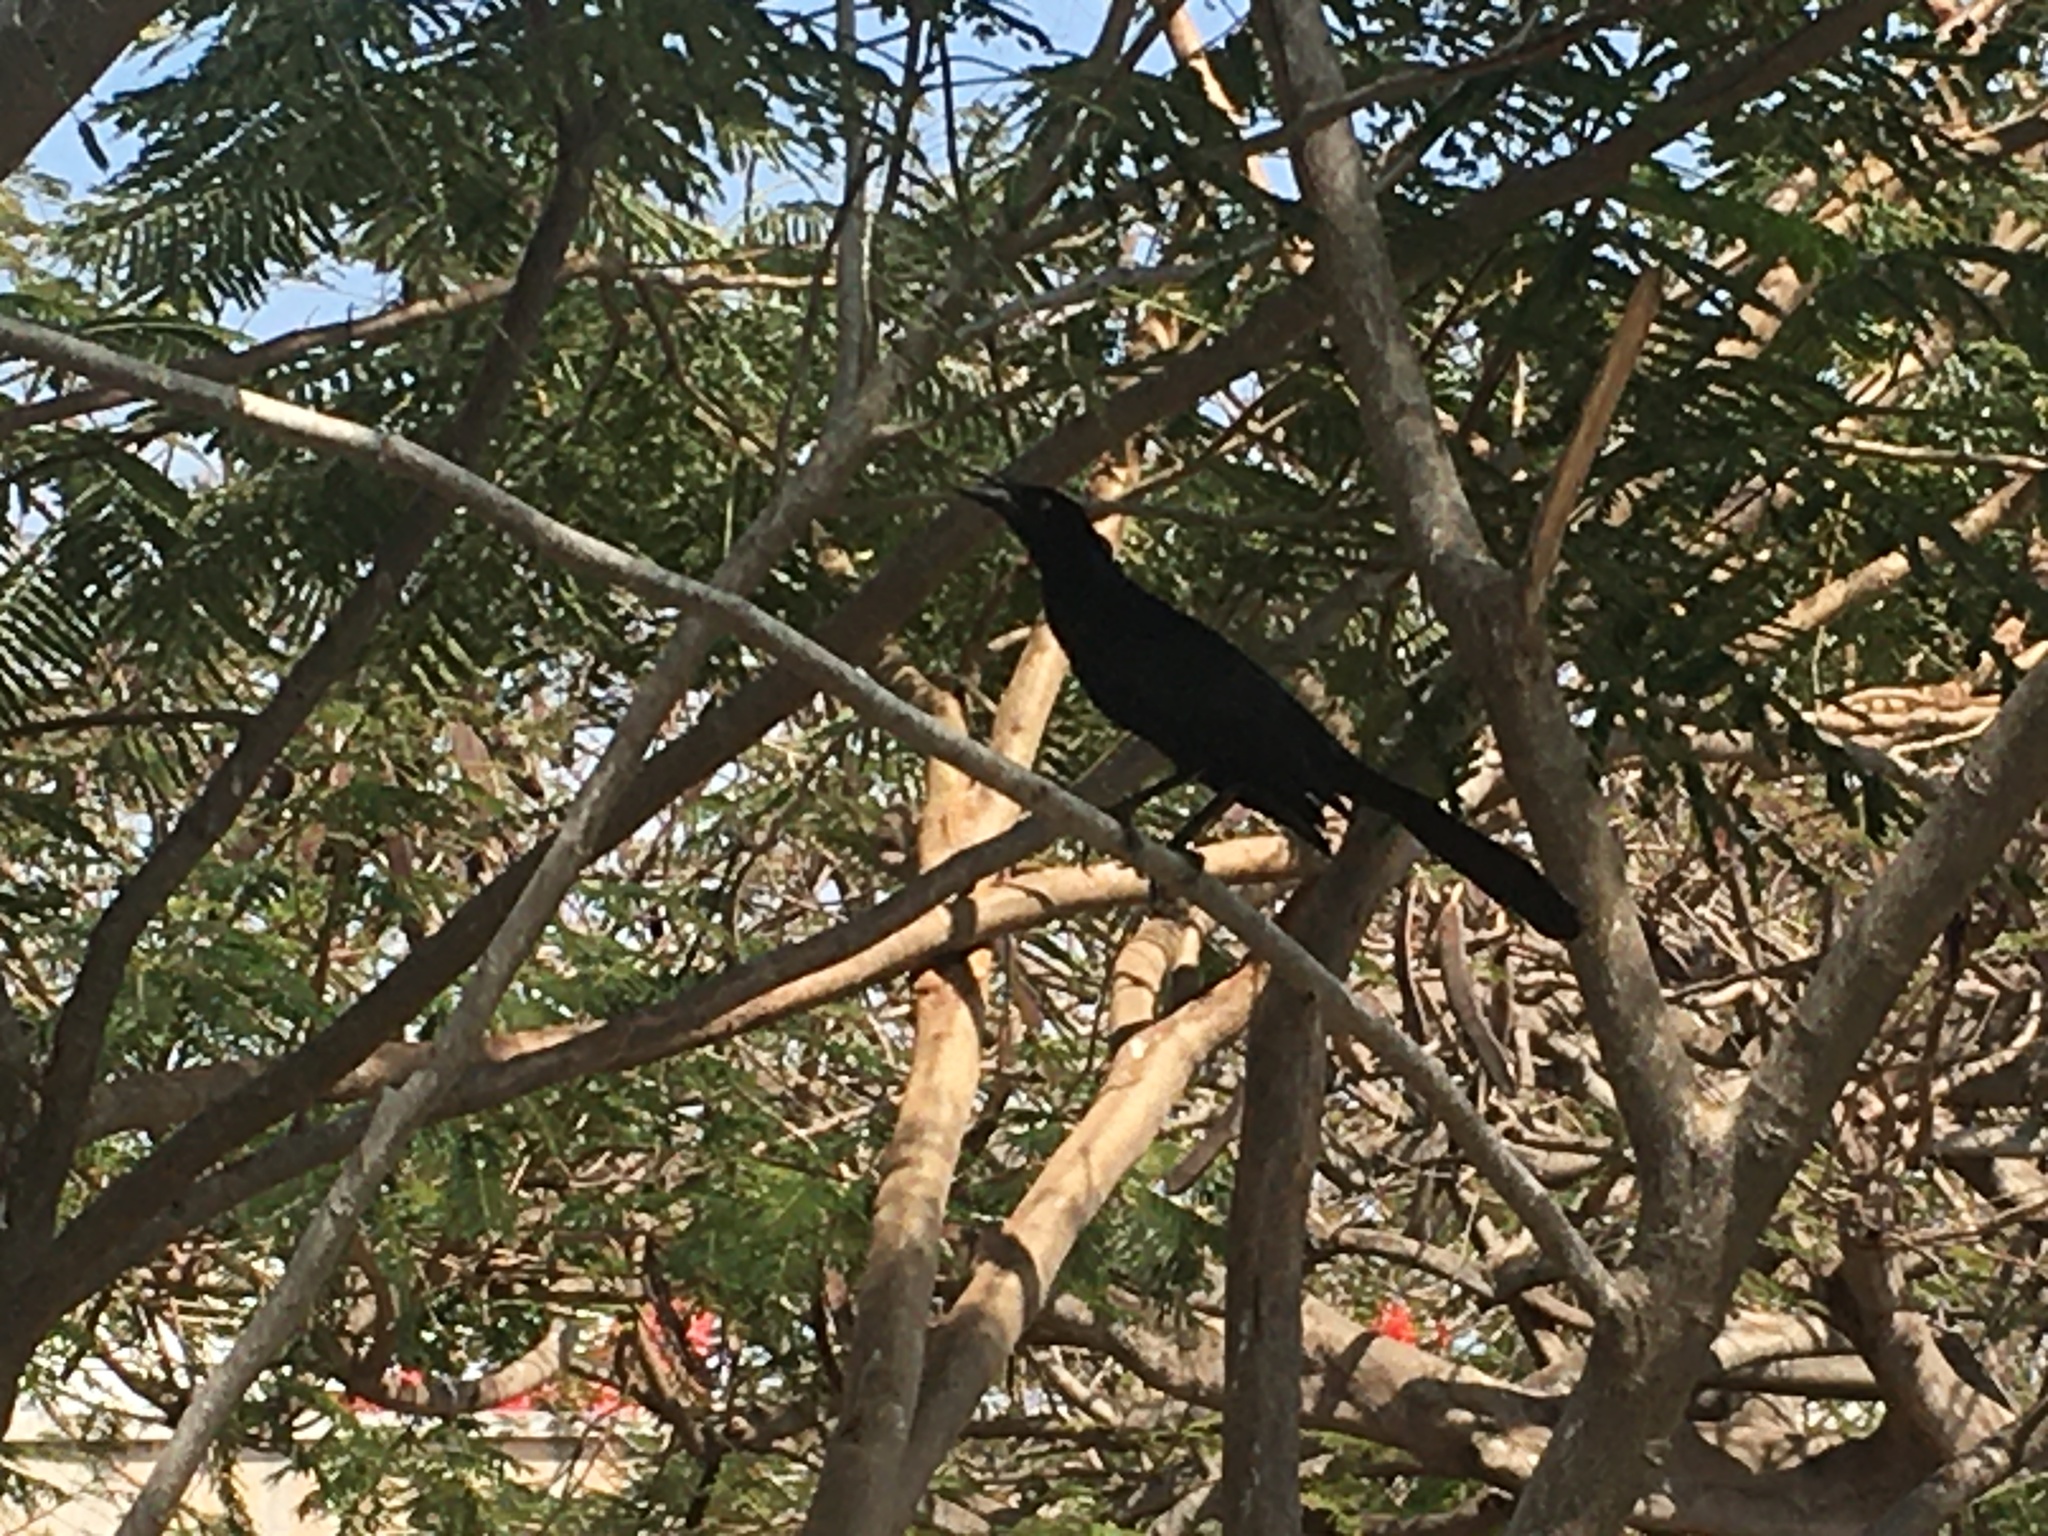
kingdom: Animalia
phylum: Chordata
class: Aves
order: Passeriformes
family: Icteridae
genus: Quiscalus
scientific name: Quiscalus mexicanus
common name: Great-tailed grackle
